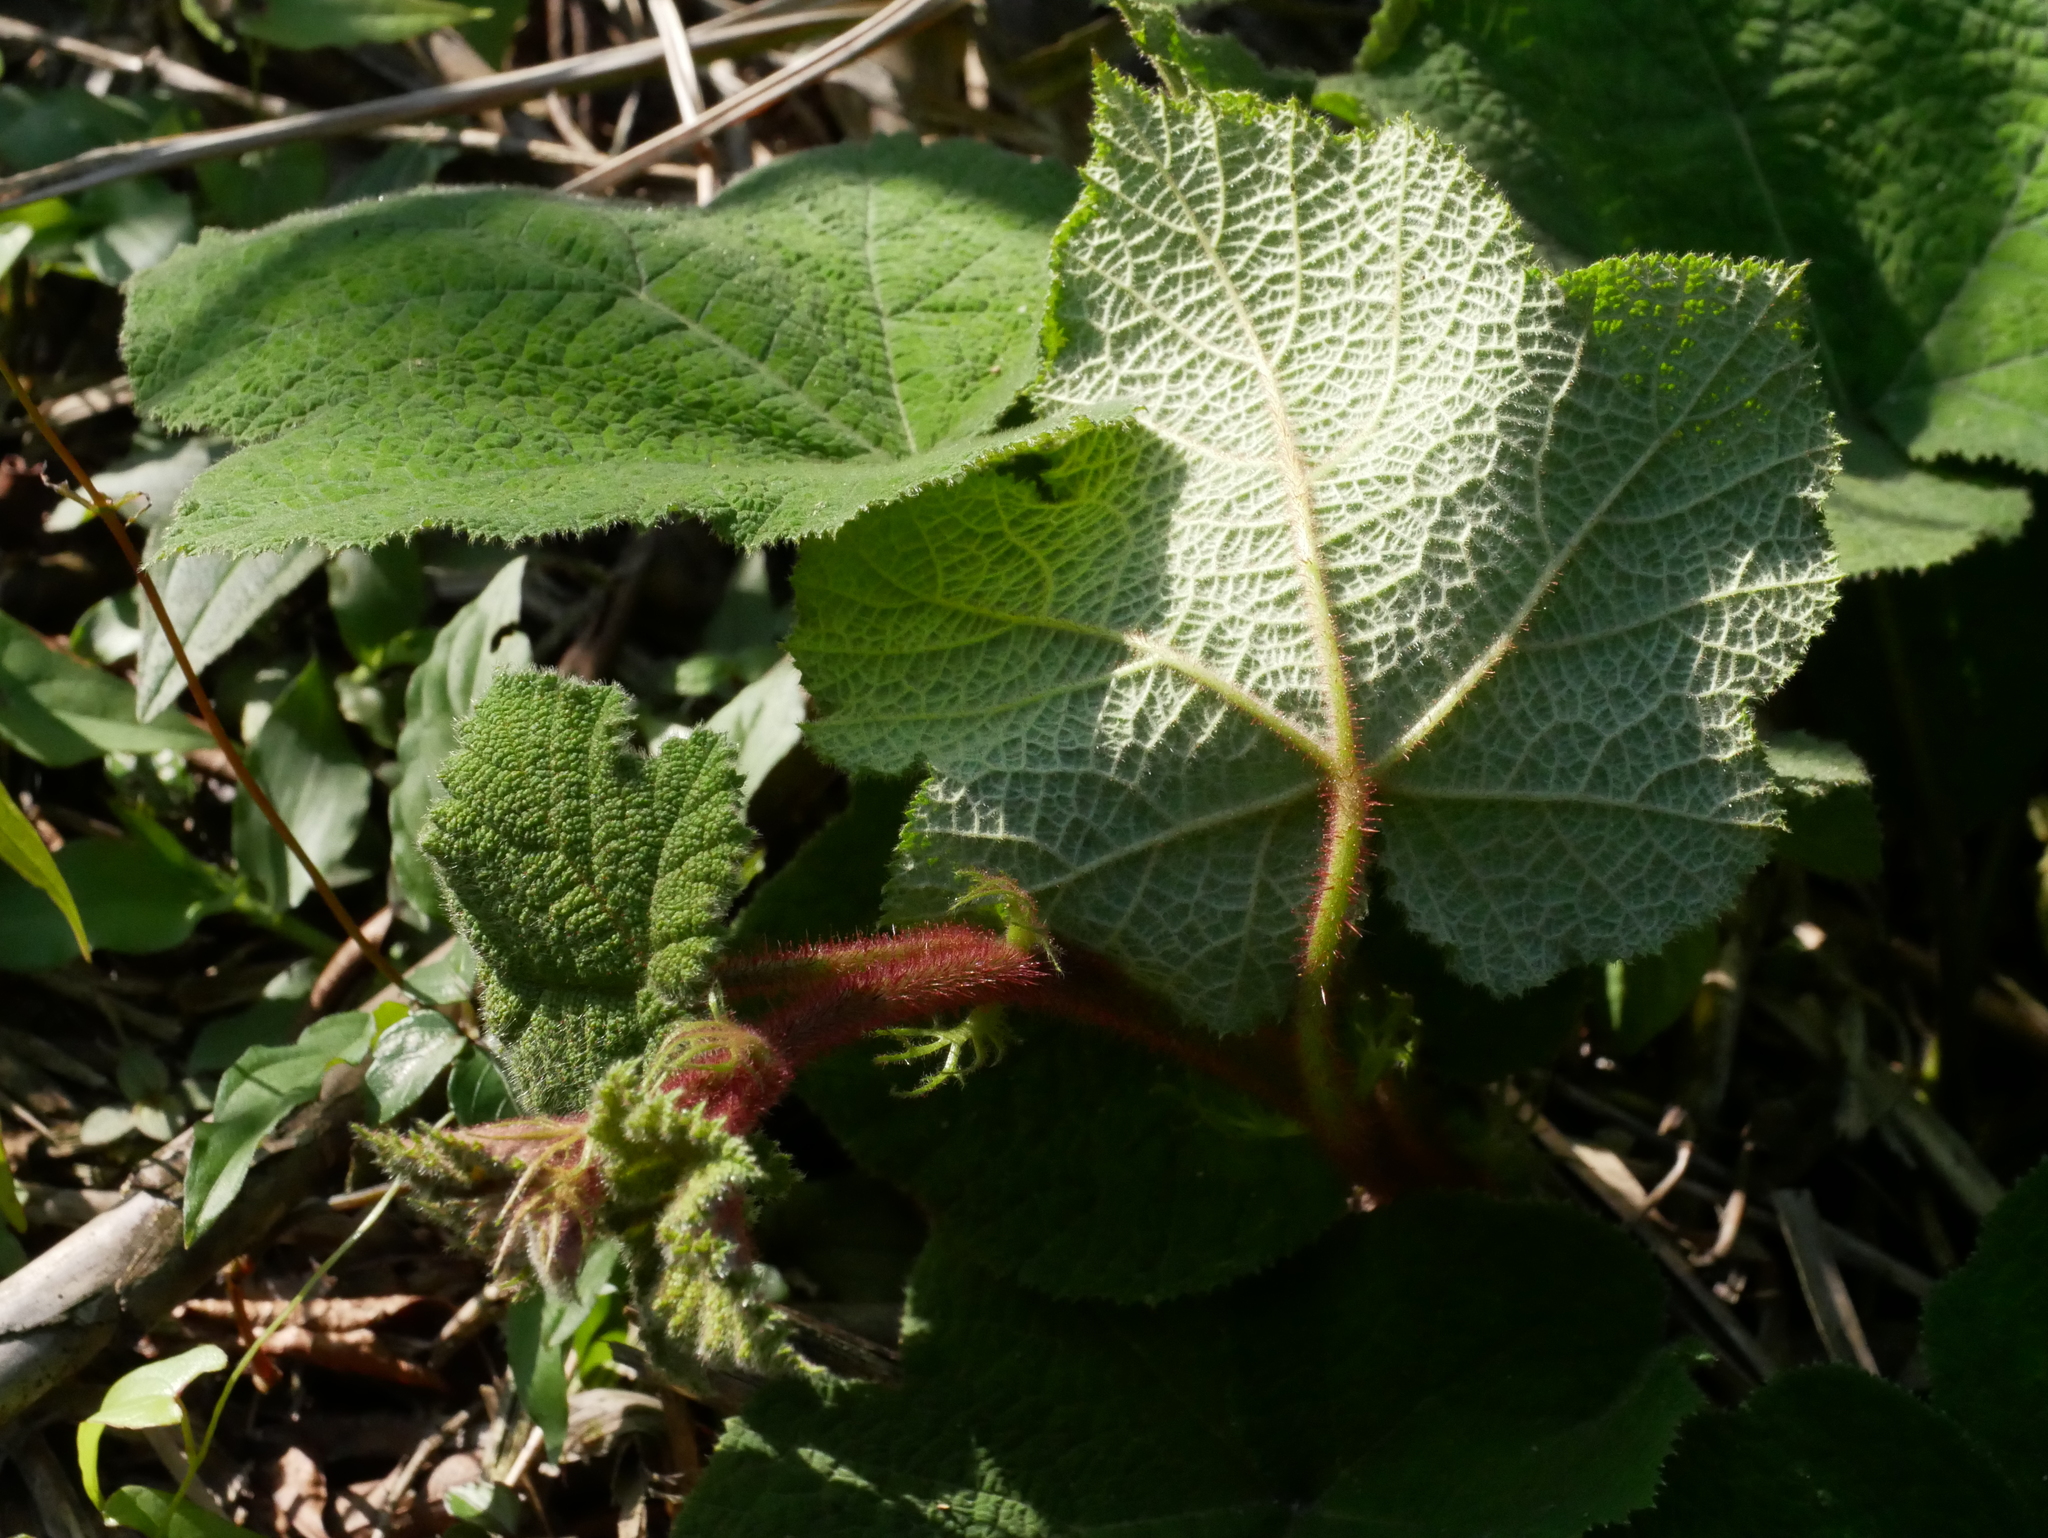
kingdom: Plantae
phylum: Tracheophyta
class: Magnoliopsida
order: Rosales
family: Rosaceae
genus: Rubus
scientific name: Rubus amphidasys
